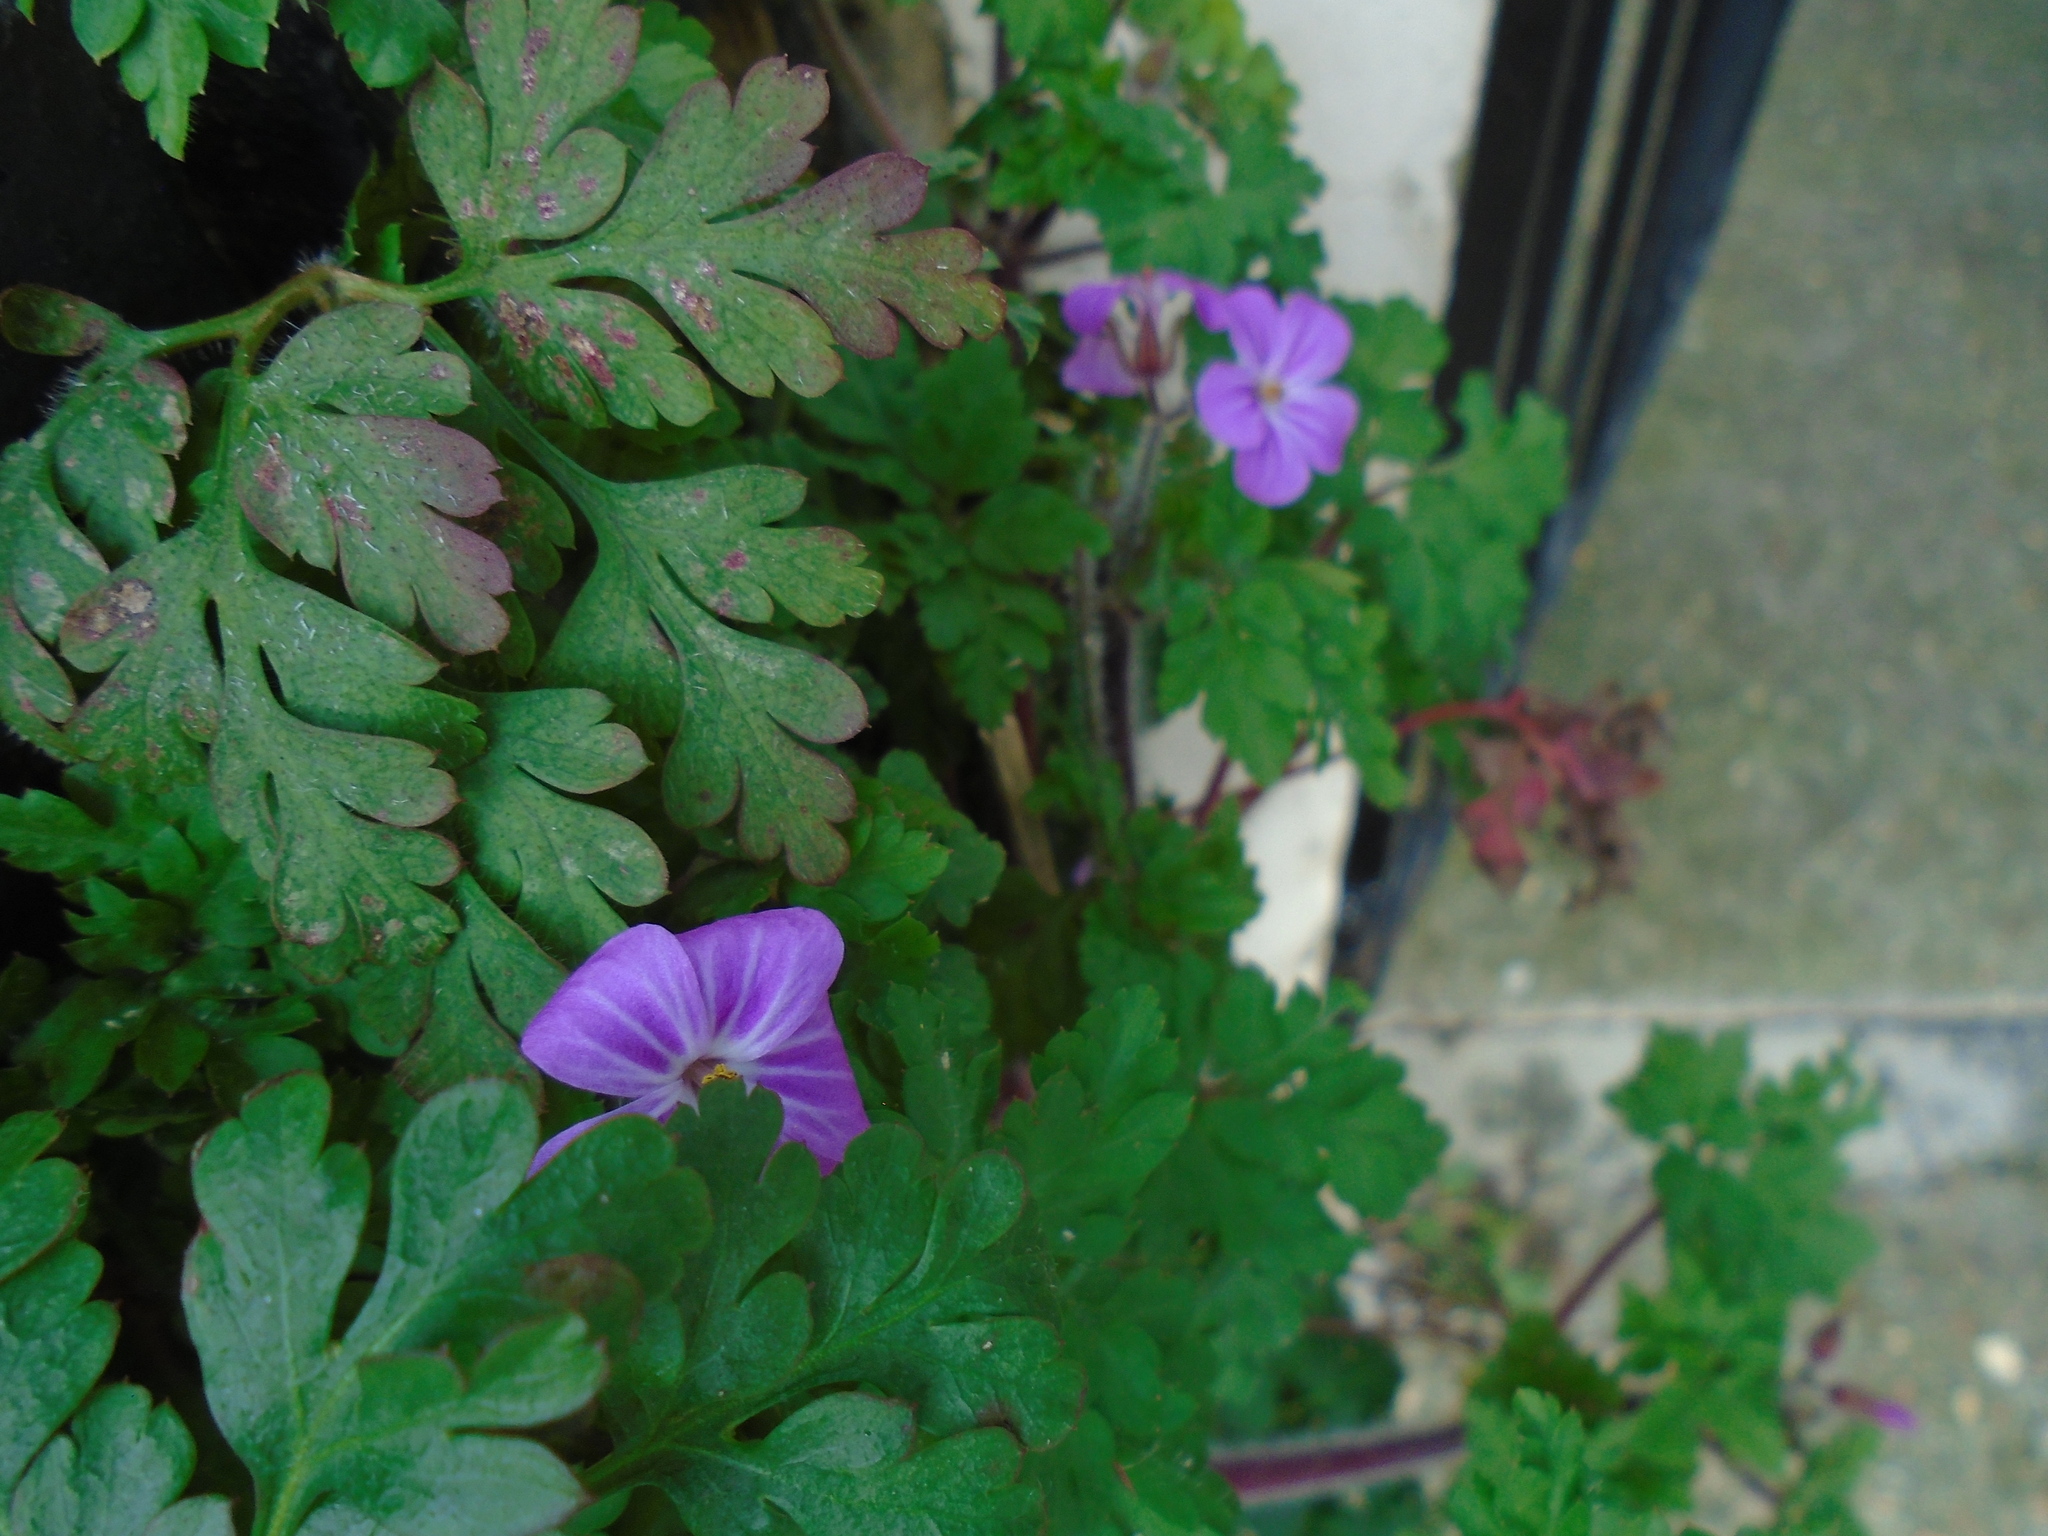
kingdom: Plantae
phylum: Tracheophyta
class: Magnoliopsida
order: Geraniales
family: Geraniaceae
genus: Geranium
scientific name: Geranium robertianum
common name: Herb-robert
